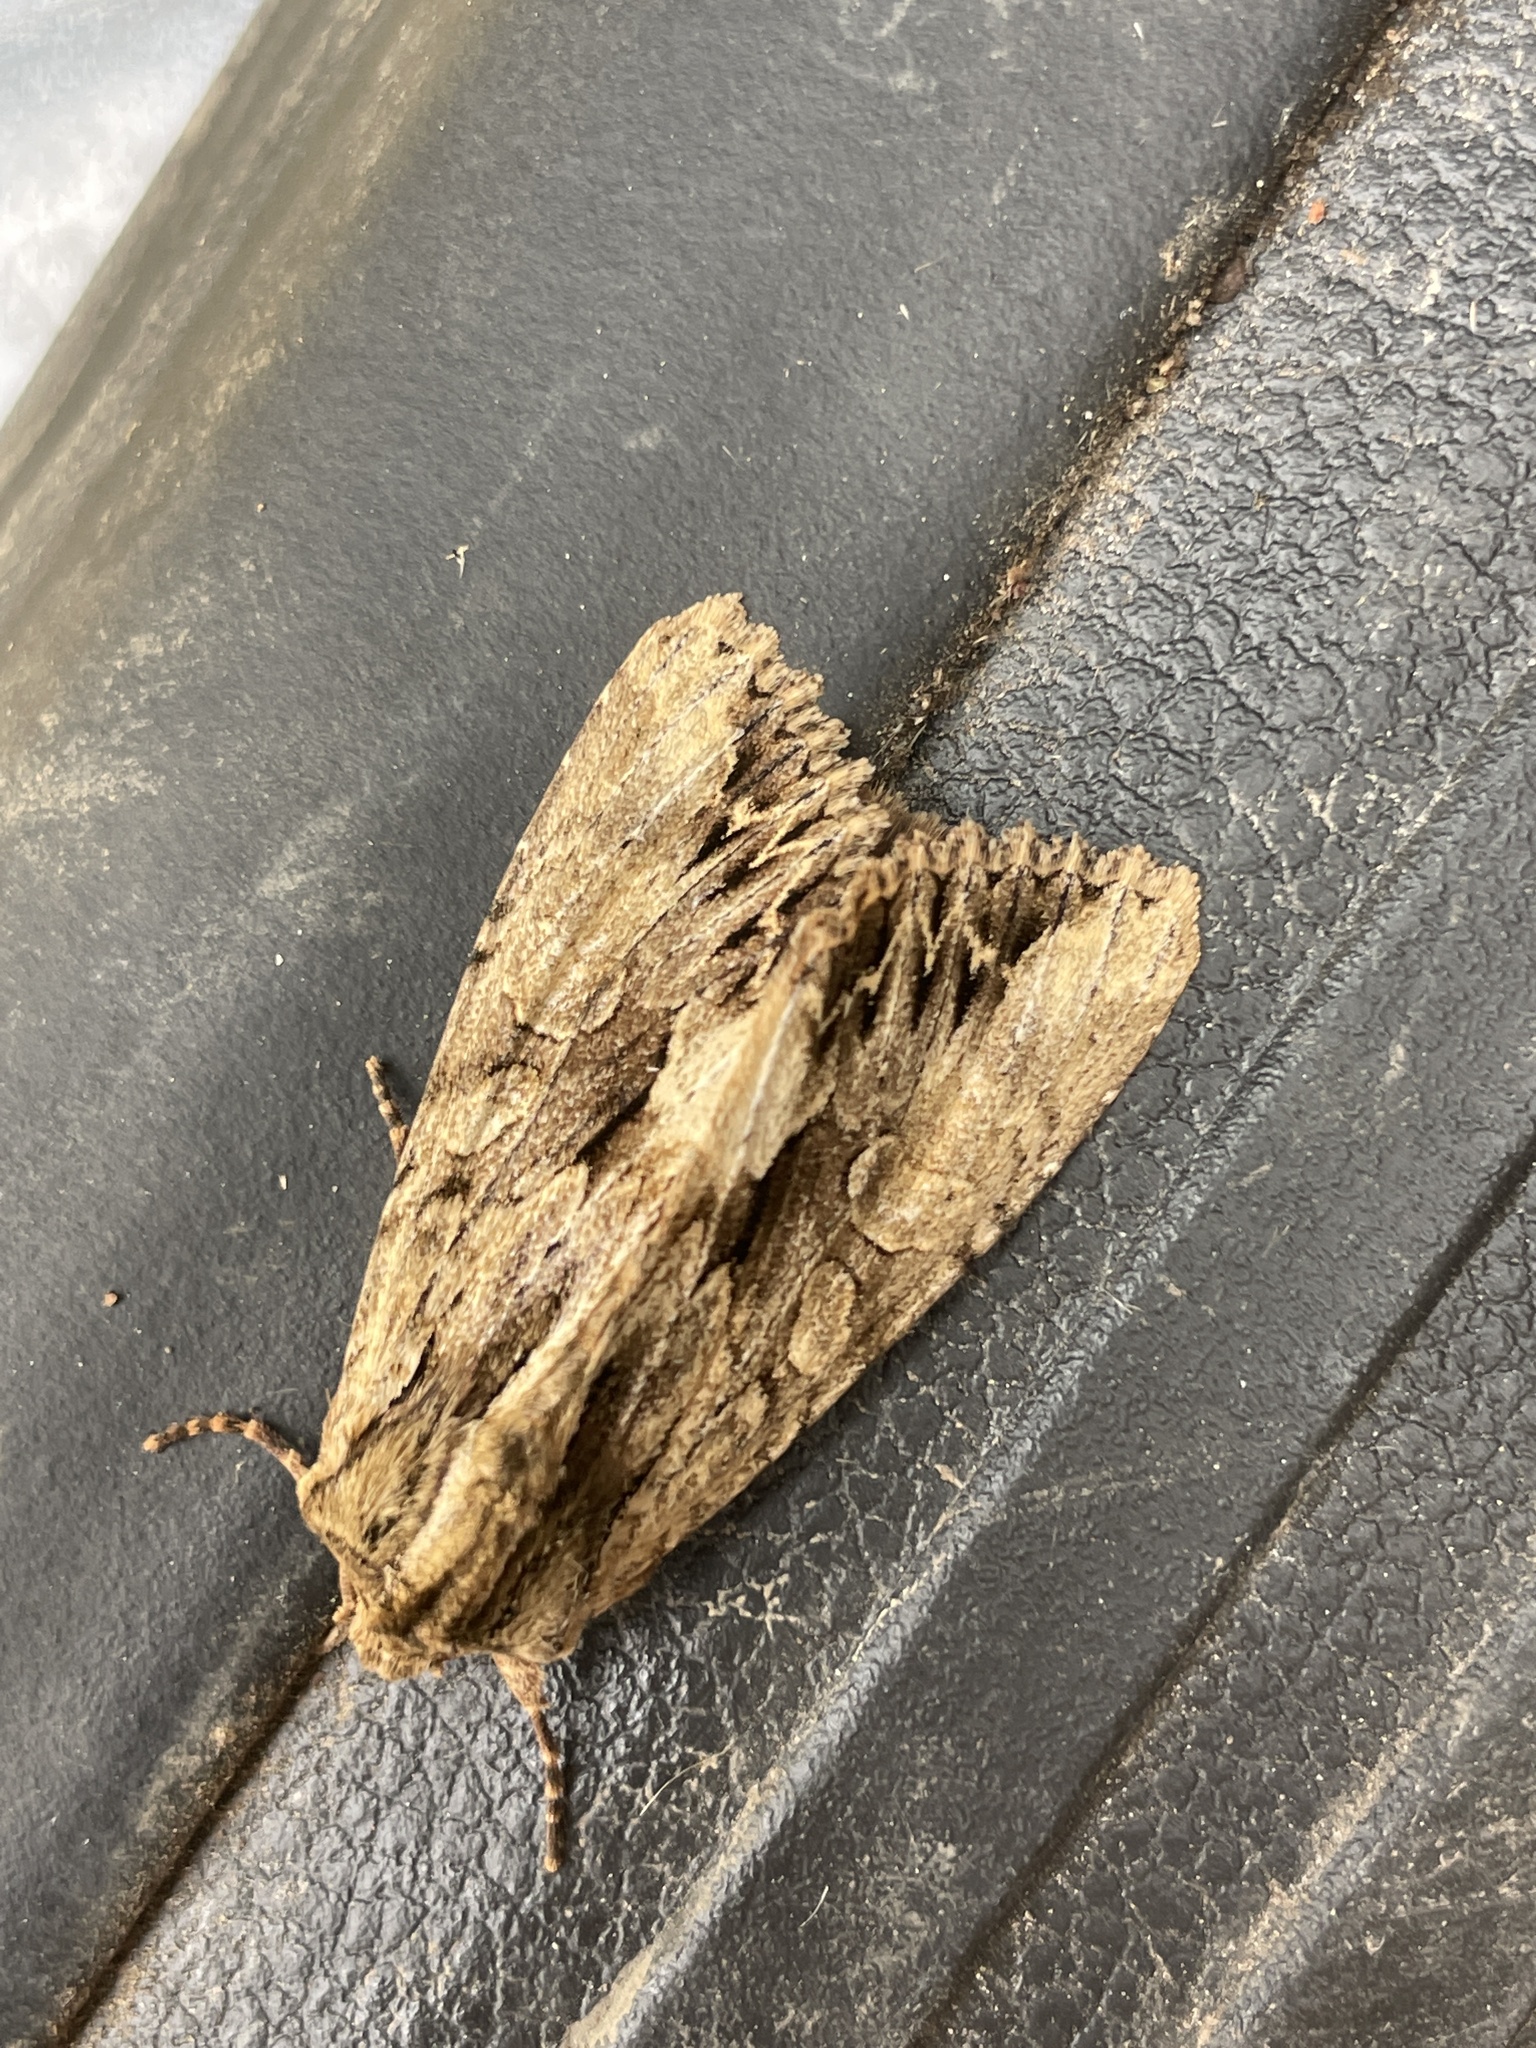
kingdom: Animalia
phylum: Arthropoda
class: Insecta
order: Lepidoptera
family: Noctuidae
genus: Apamea
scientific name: Apamea monoglypha
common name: Dark arches
